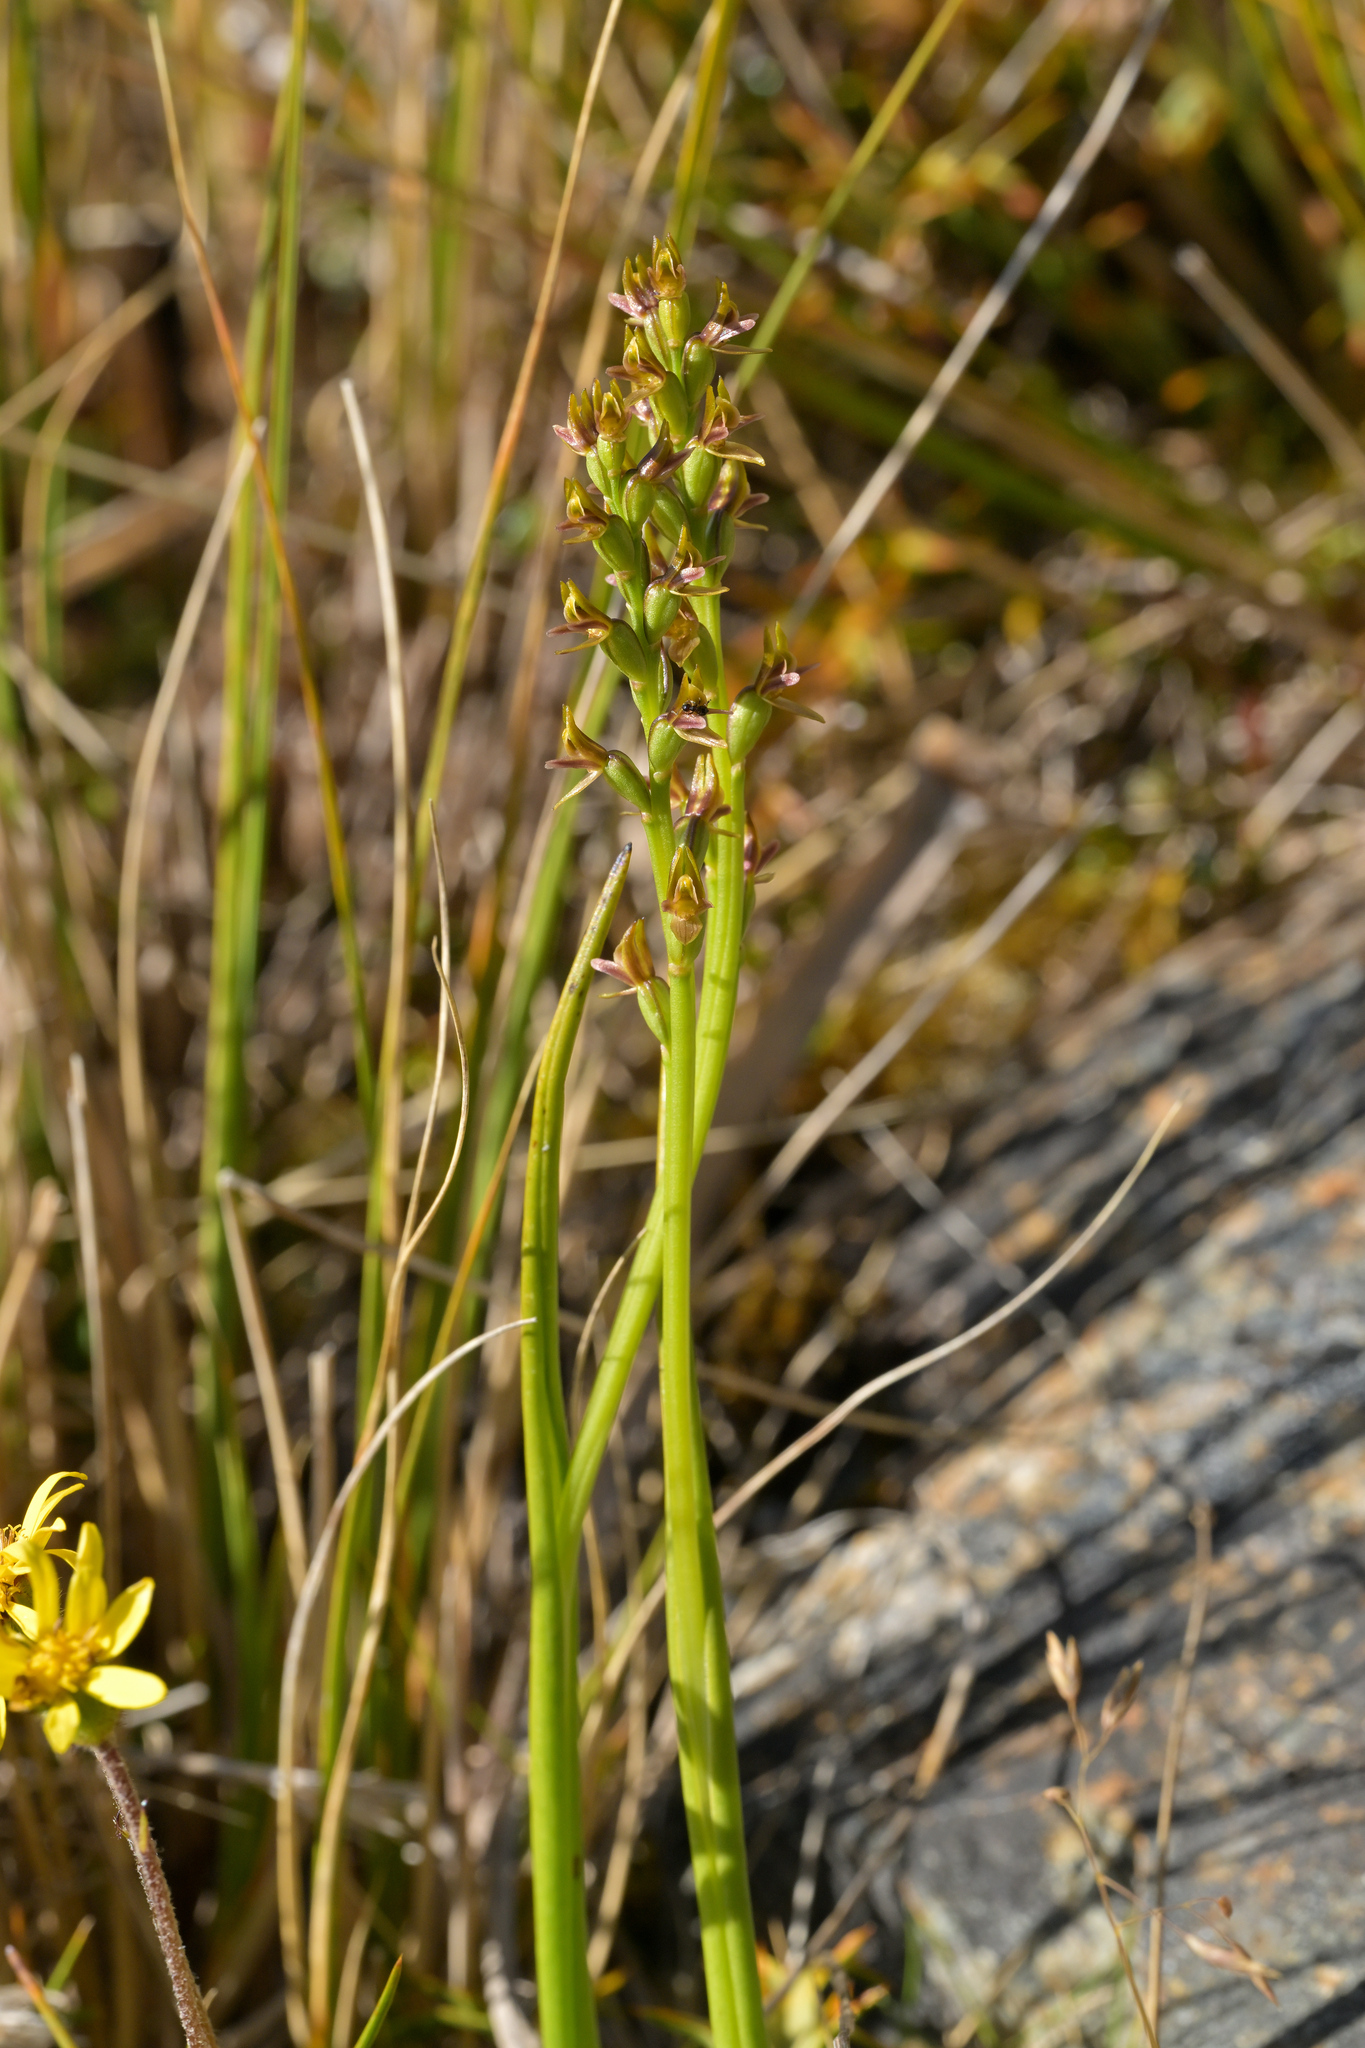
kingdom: Plantae
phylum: Tracheophyta
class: Liliopsida
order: Asparagales
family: Orchidaceae
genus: Prasophyllum
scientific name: Prasophyllum colensoi
